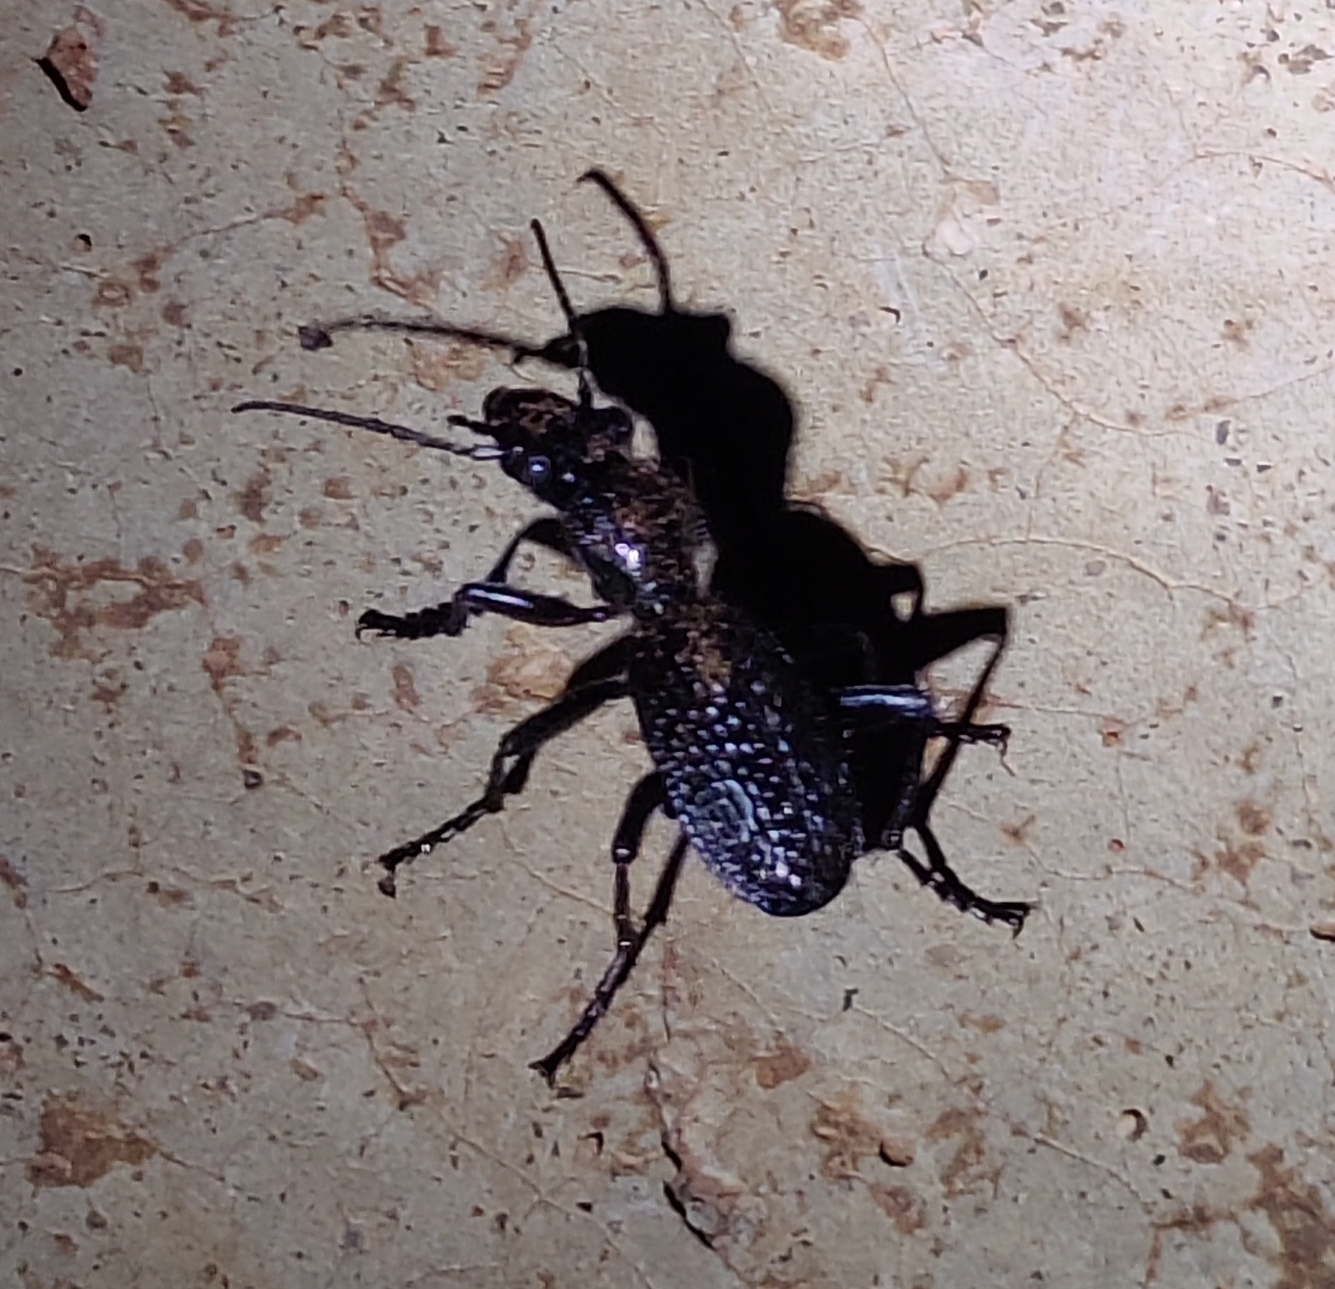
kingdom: Animalia
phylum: Arthropoda
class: Insecta
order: Coleoptera
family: Carabidae
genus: Anthia
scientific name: Anthia cavernosa
